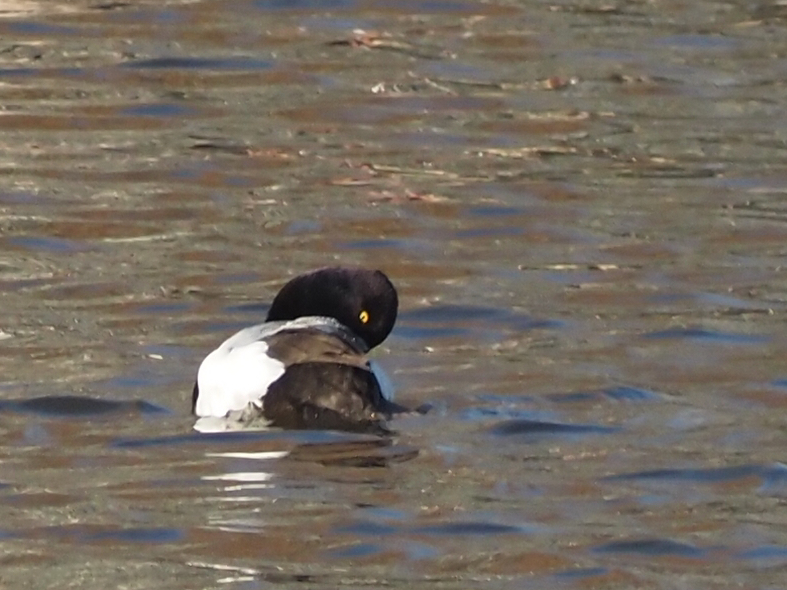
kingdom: Animalia
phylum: Chordata
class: Aves
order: Anseriformes
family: Anatidae
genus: Aythya
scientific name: Aythya affinis
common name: Lesser scaup
